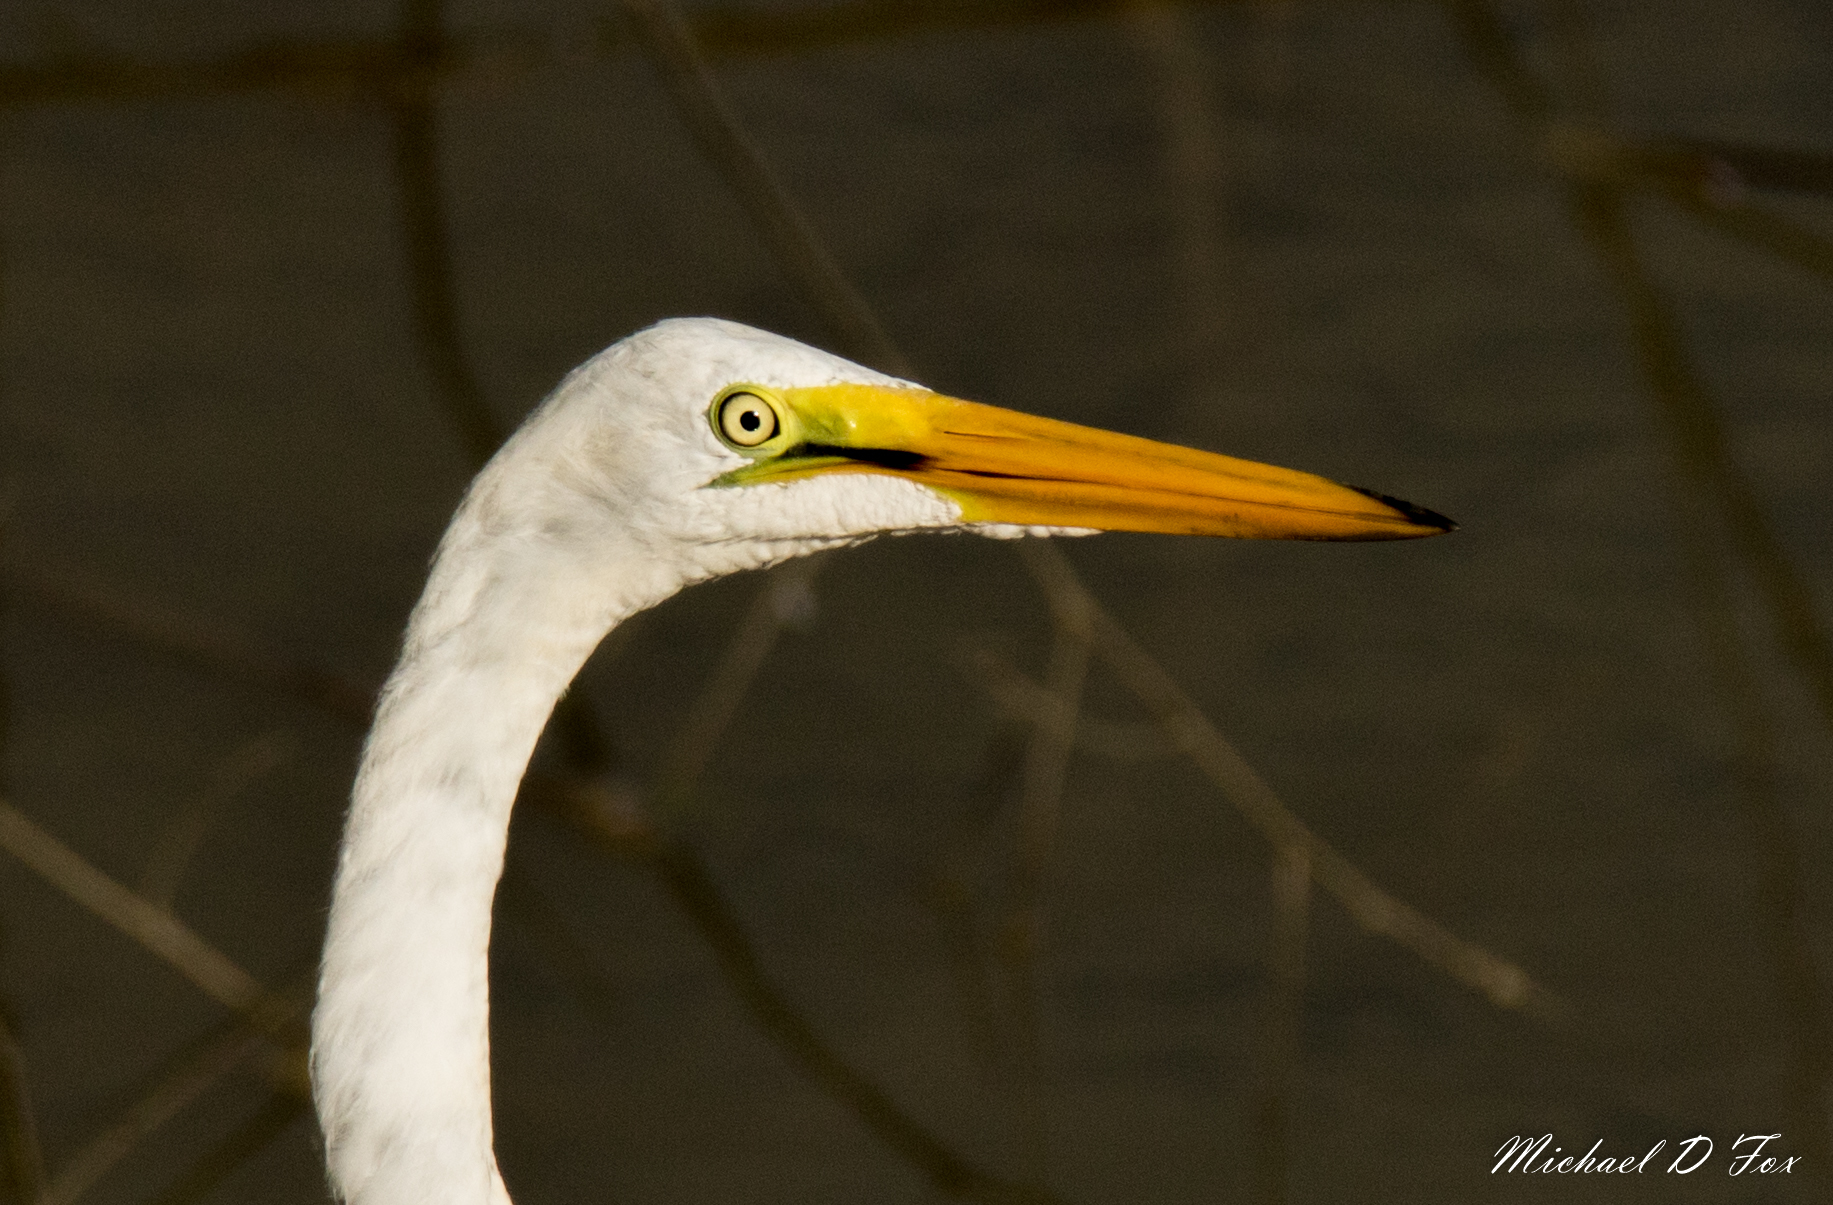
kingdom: Animalia
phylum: Chordata
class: Aves
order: Pelecaniformes
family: Ardeidae
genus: Ardea
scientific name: Ardea alba
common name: Great egret
